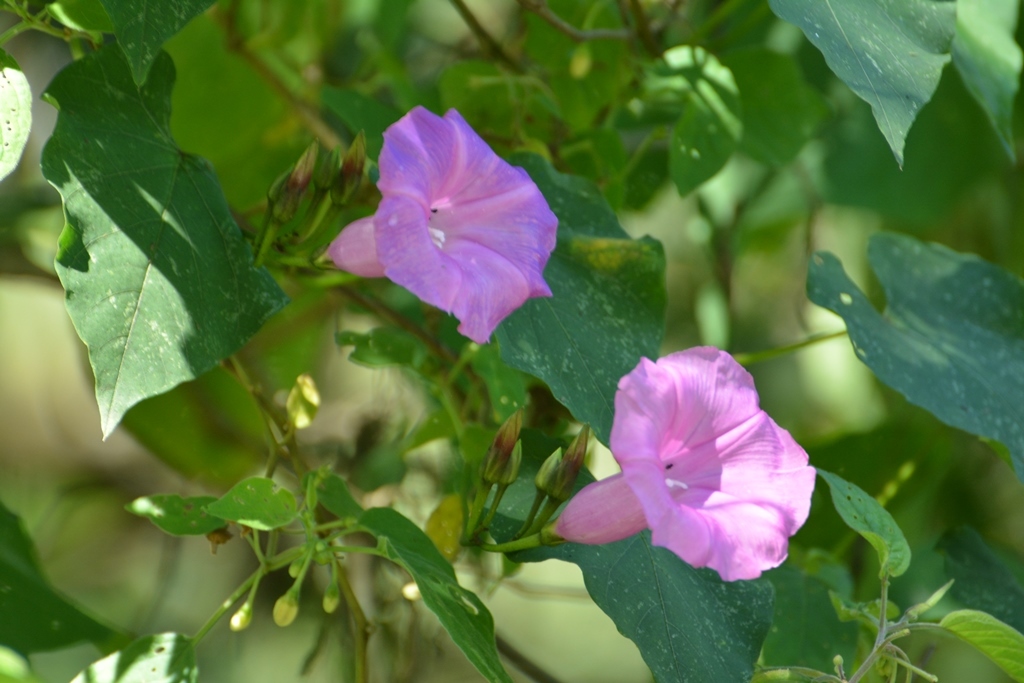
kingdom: Plantae
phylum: Tracheophyta
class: Magnoliopsida
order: Solanales
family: Convolvulaceae
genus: Ipomoea
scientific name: Ipomoea orizabensis
